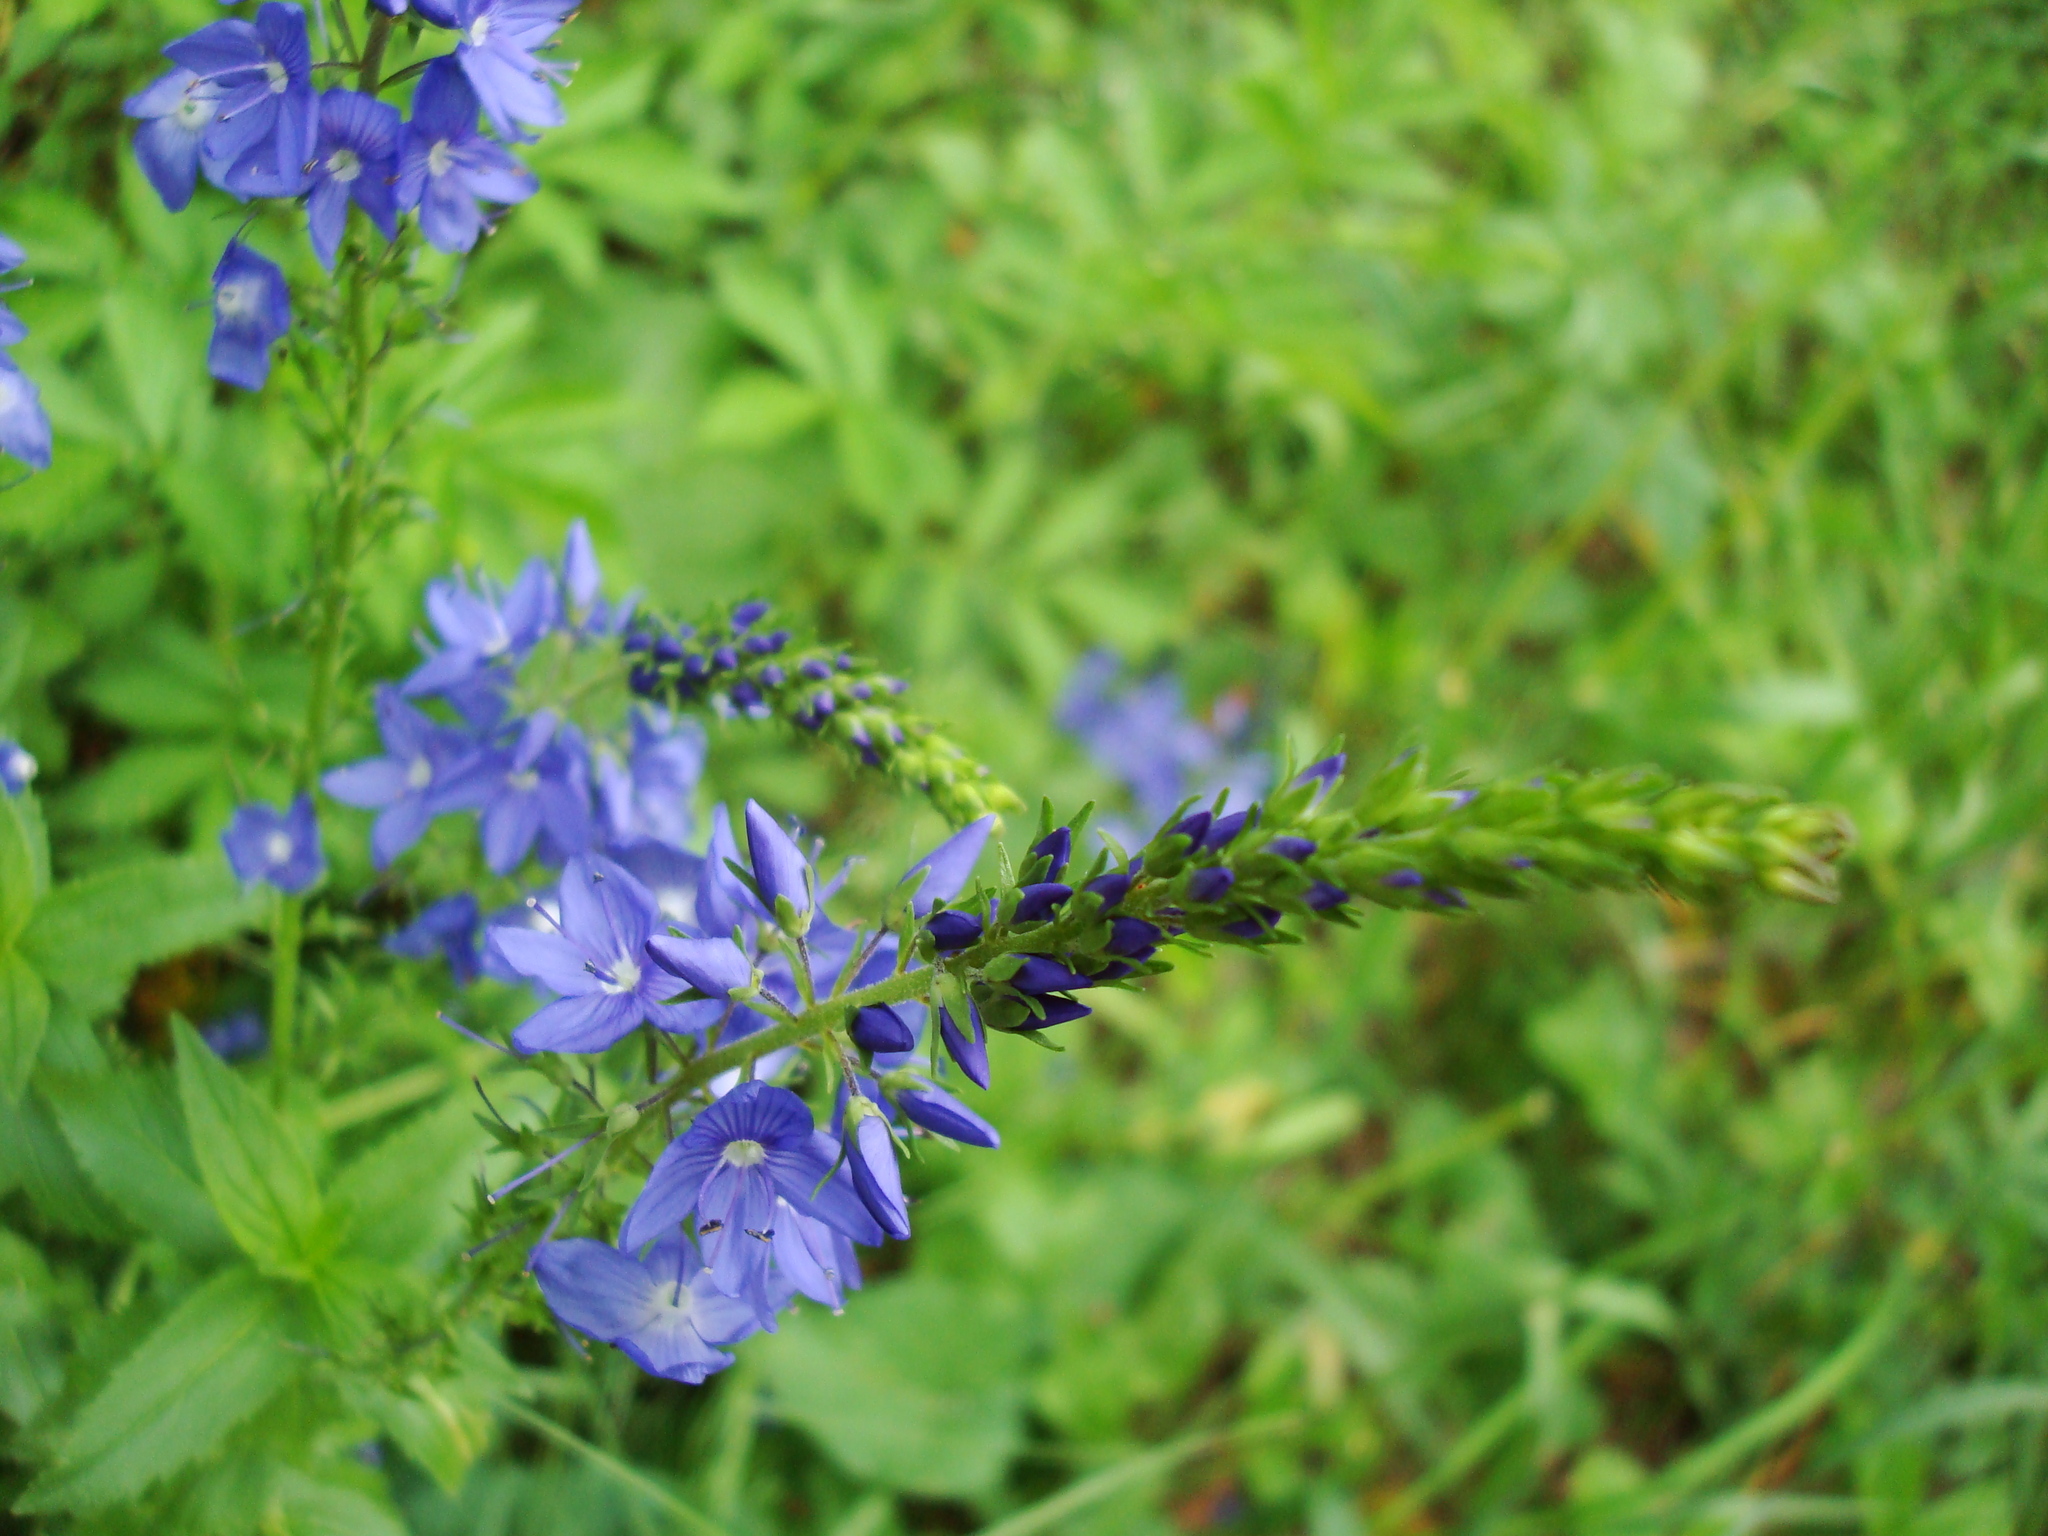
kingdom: Plantae
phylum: Tracheophyta
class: Magnoliopsida
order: Lamiales
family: Plantaginaceae
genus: Veronica
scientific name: Veronica teucrium
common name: Large speedwell
